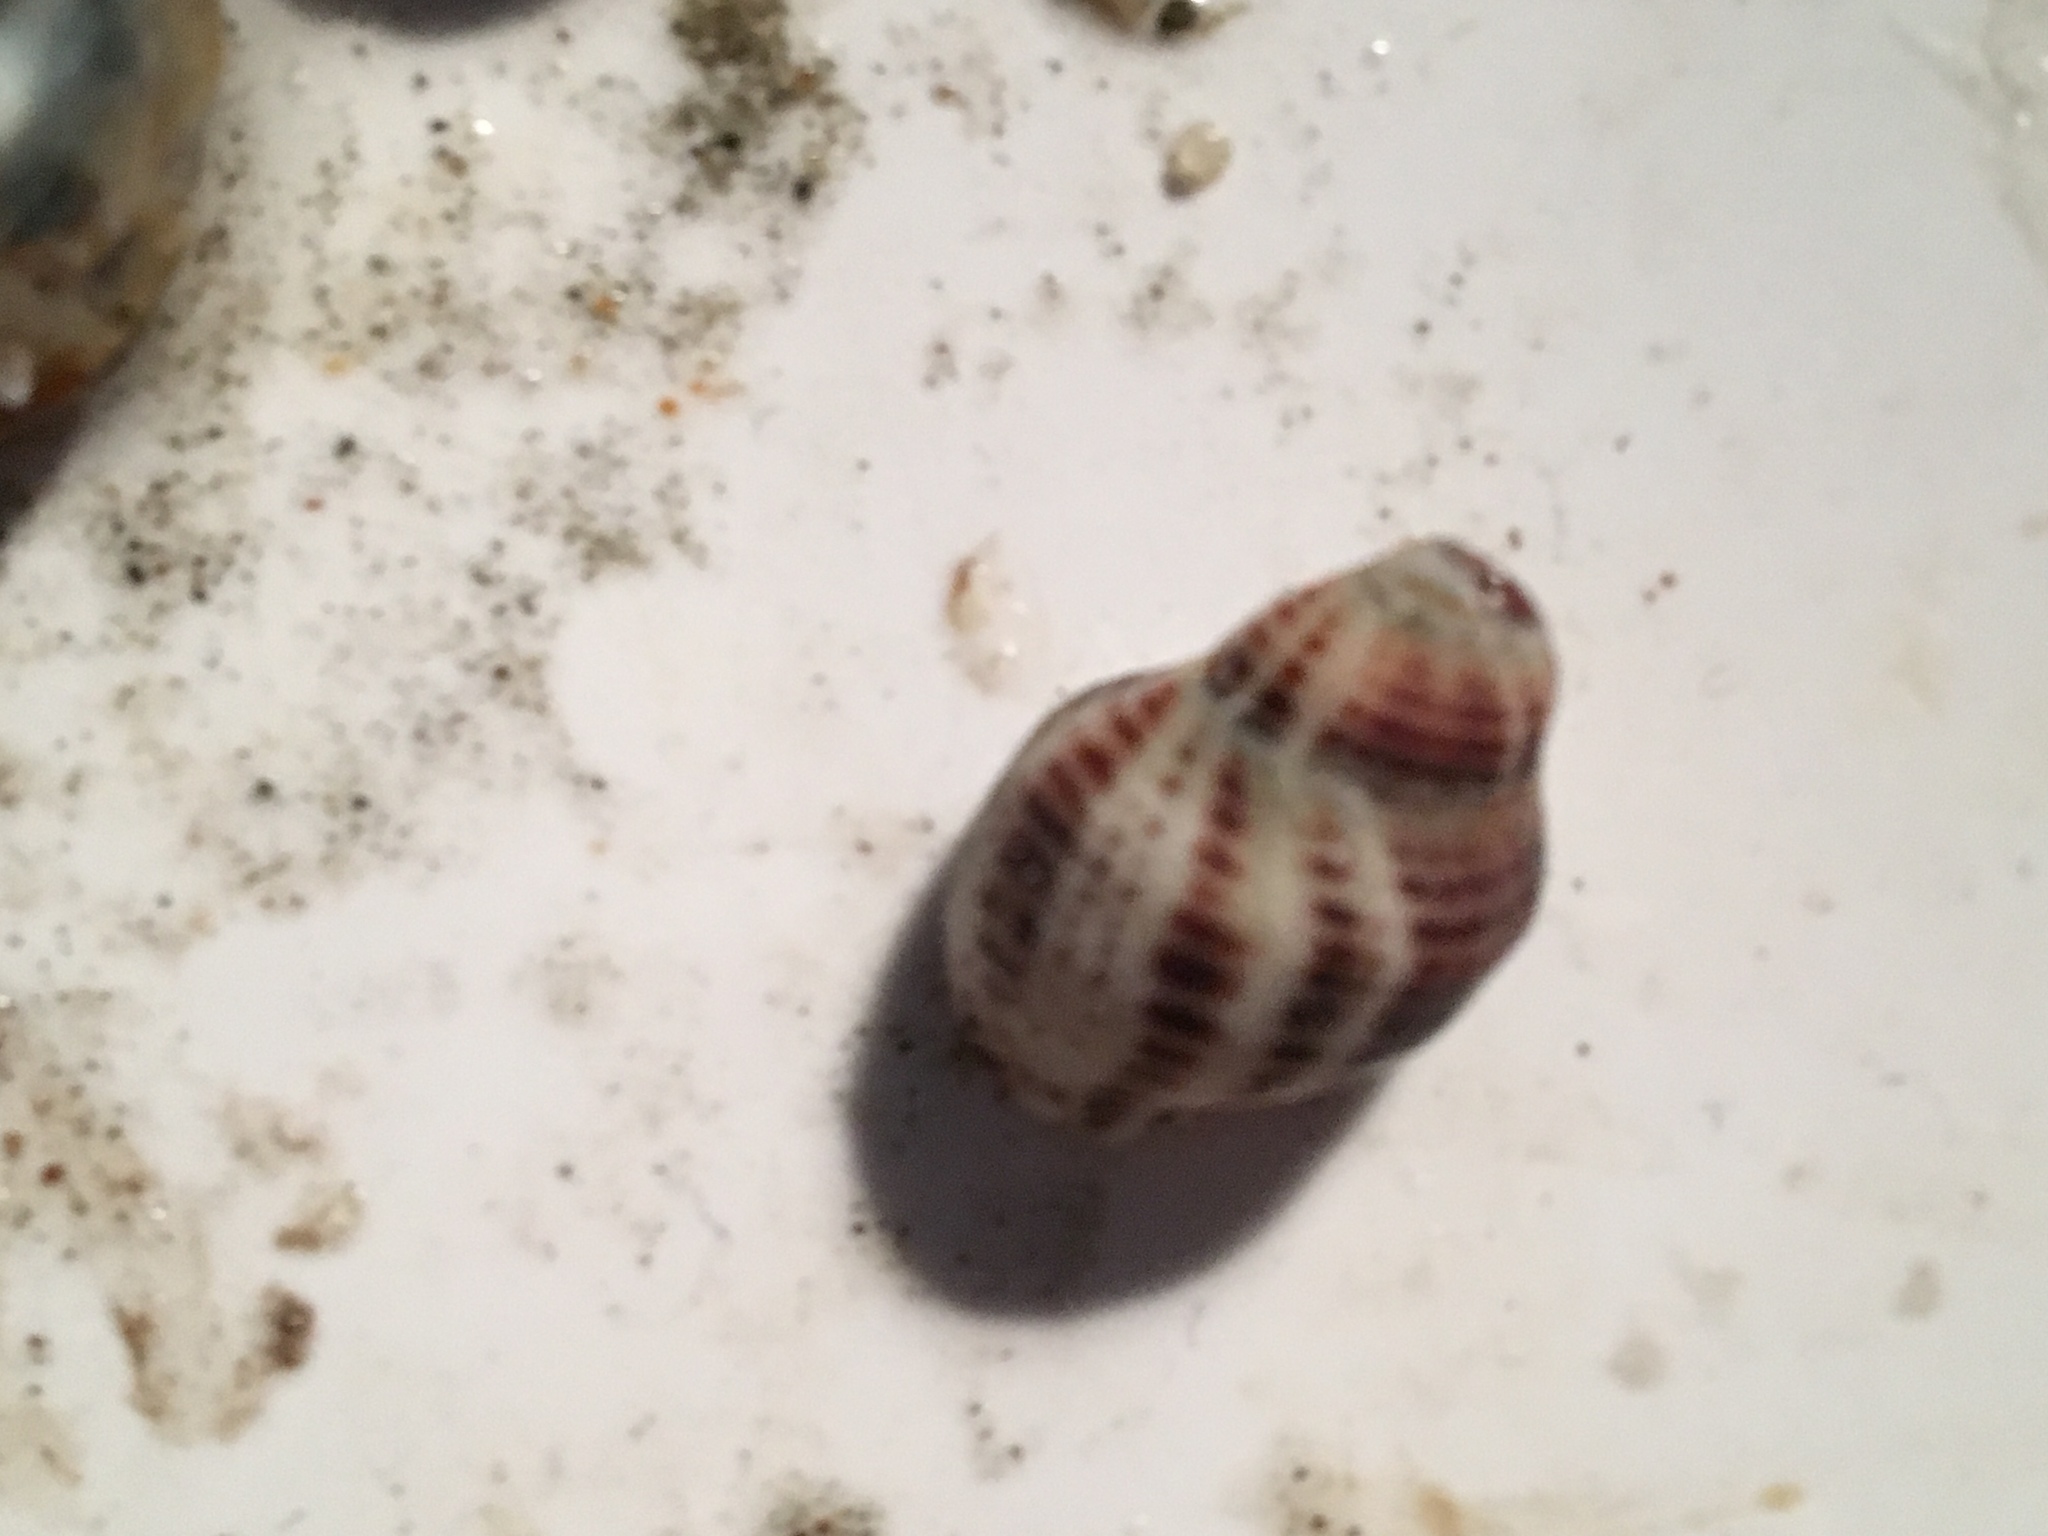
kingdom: Animalia
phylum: Mollusca
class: Gastropoda
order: Neogastropoda
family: Muricidae
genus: Acanthinucella
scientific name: Acanthinucella spirata
